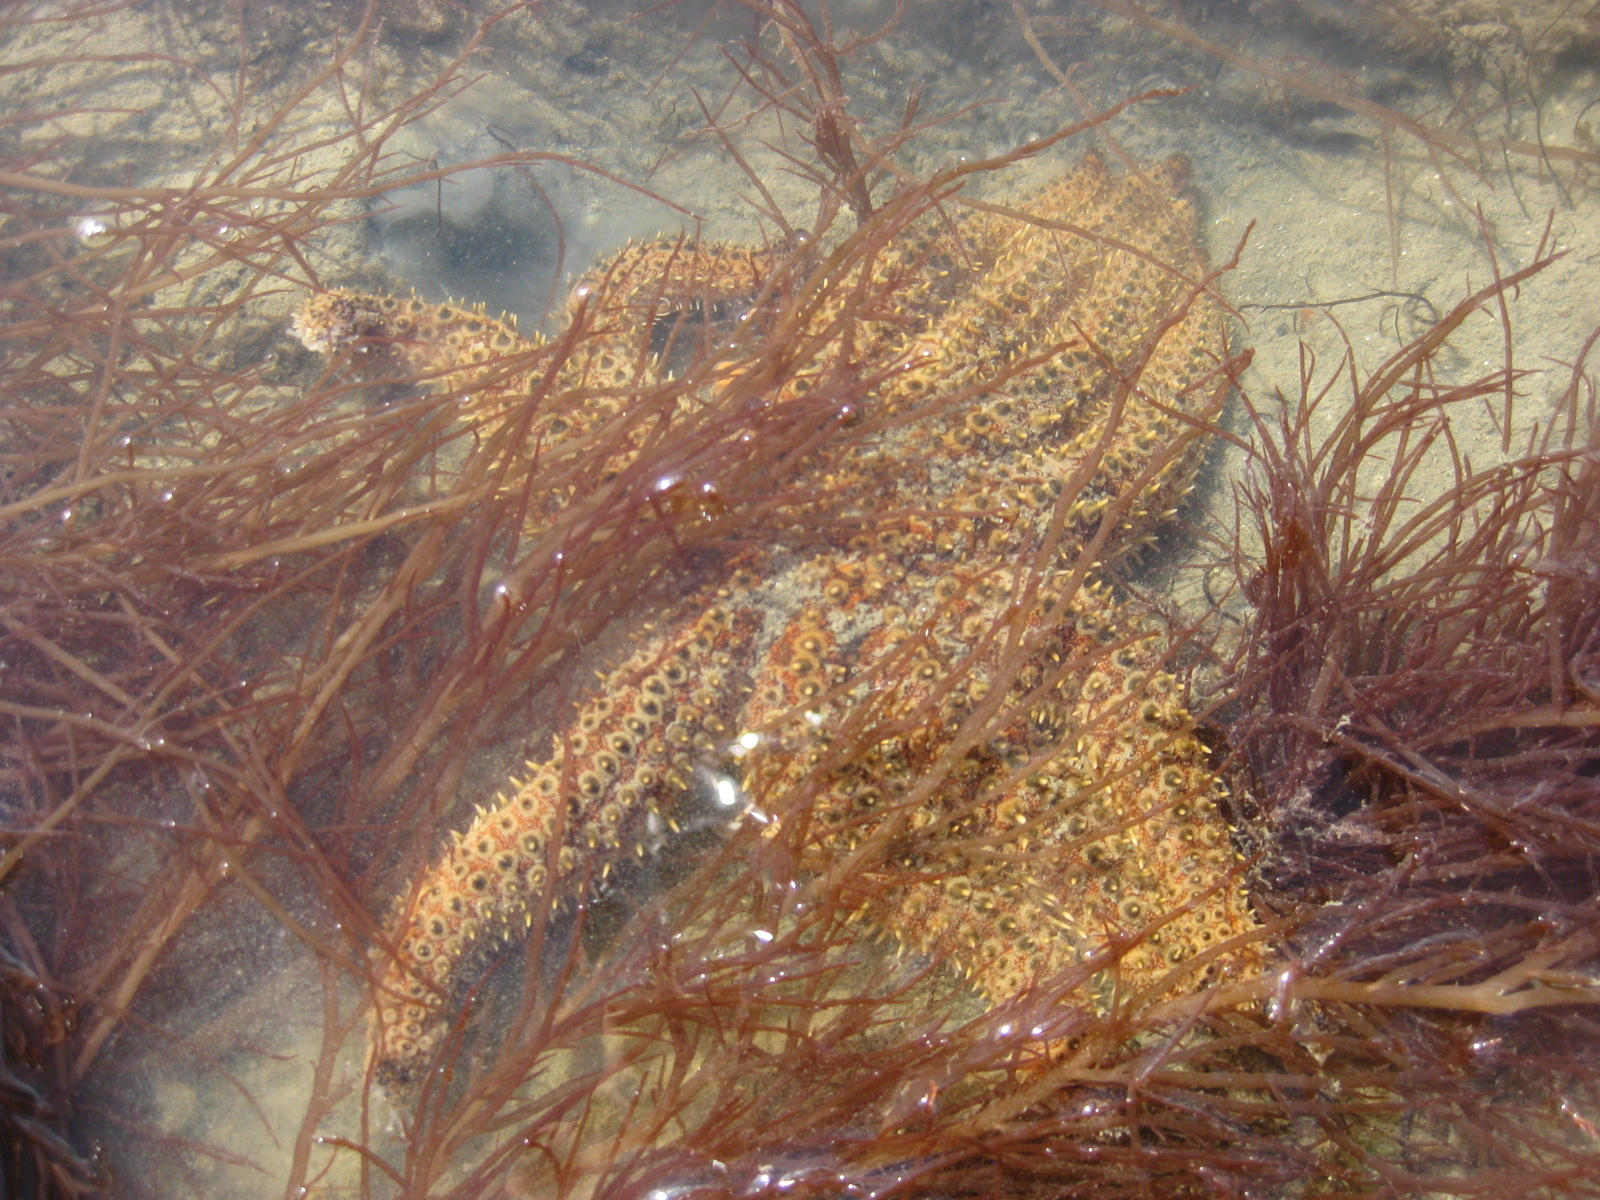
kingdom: Animalia
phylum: Echinodermata
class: Asteroidea
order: Forcipulatida
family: Asteriidae
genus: Coscinasterias
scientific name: Coscinasterias muricata
